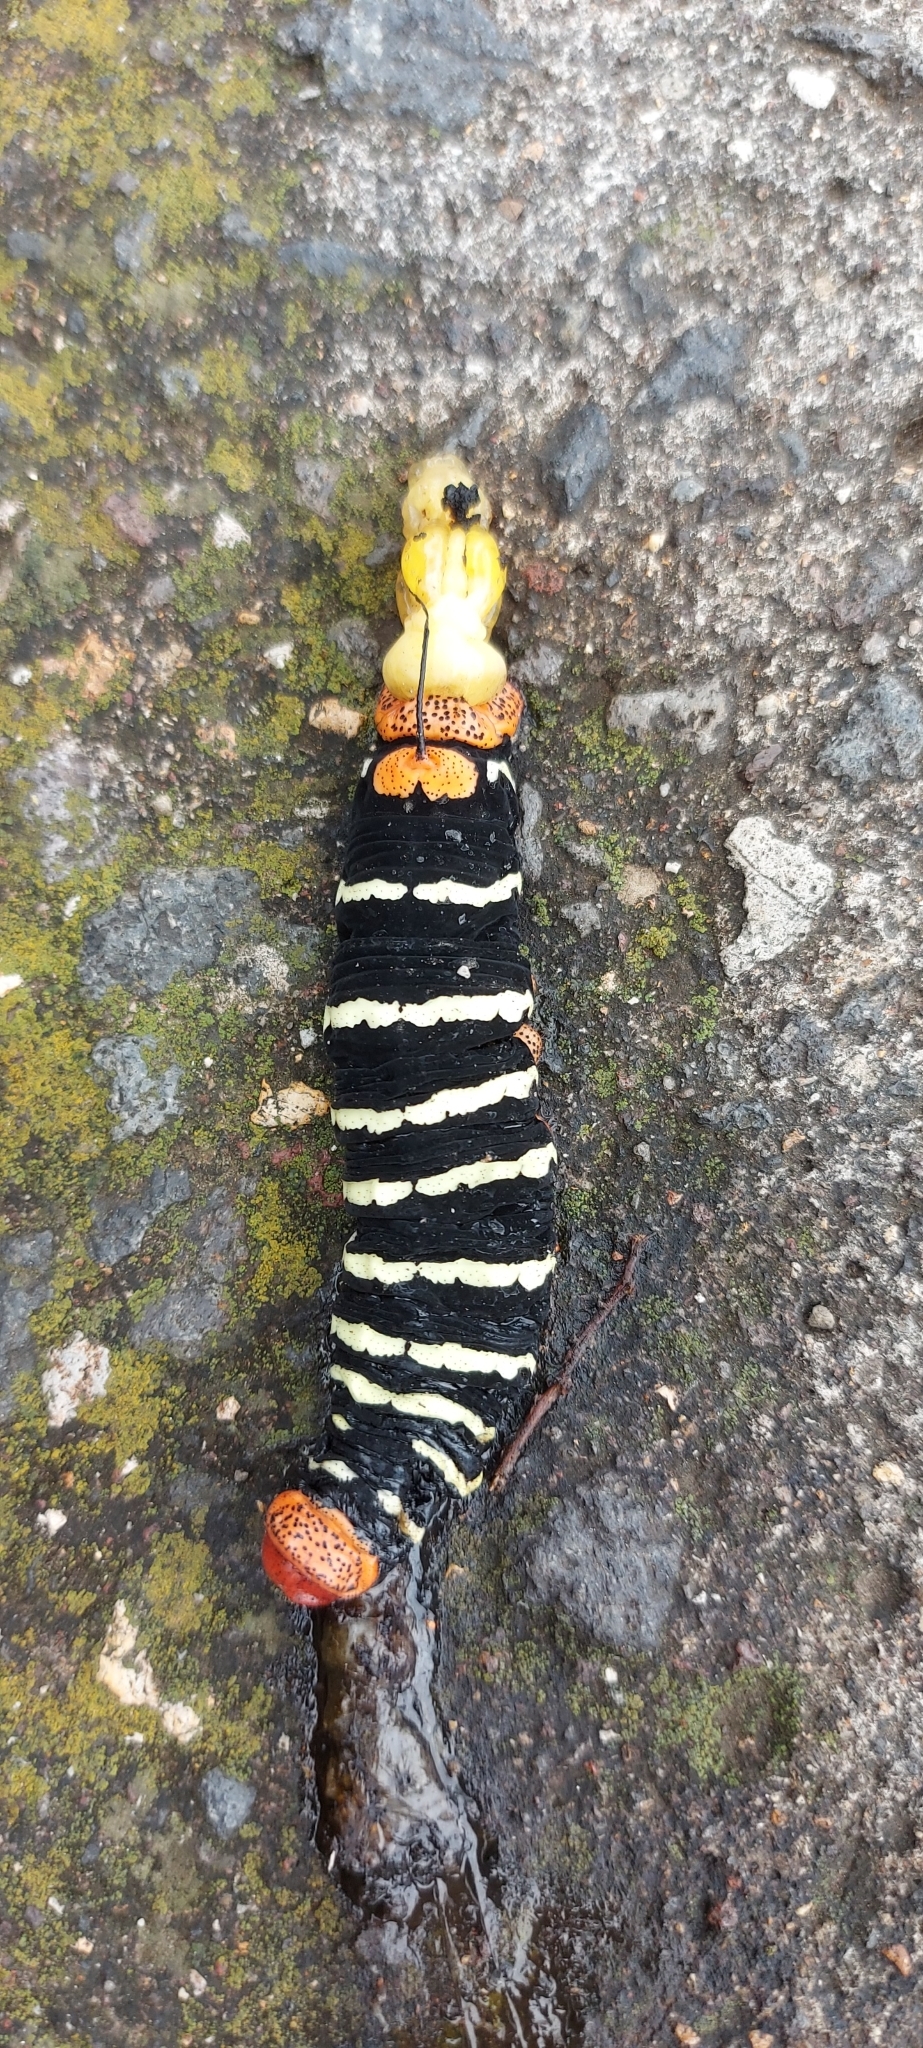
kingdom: Animalia
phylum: Arthropoda
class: Insecta
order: Lepidoptera
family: Sphingidae
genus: Pseudosphinx
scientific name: Pseudosphinx tetrio
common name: Tetrio sphinx
